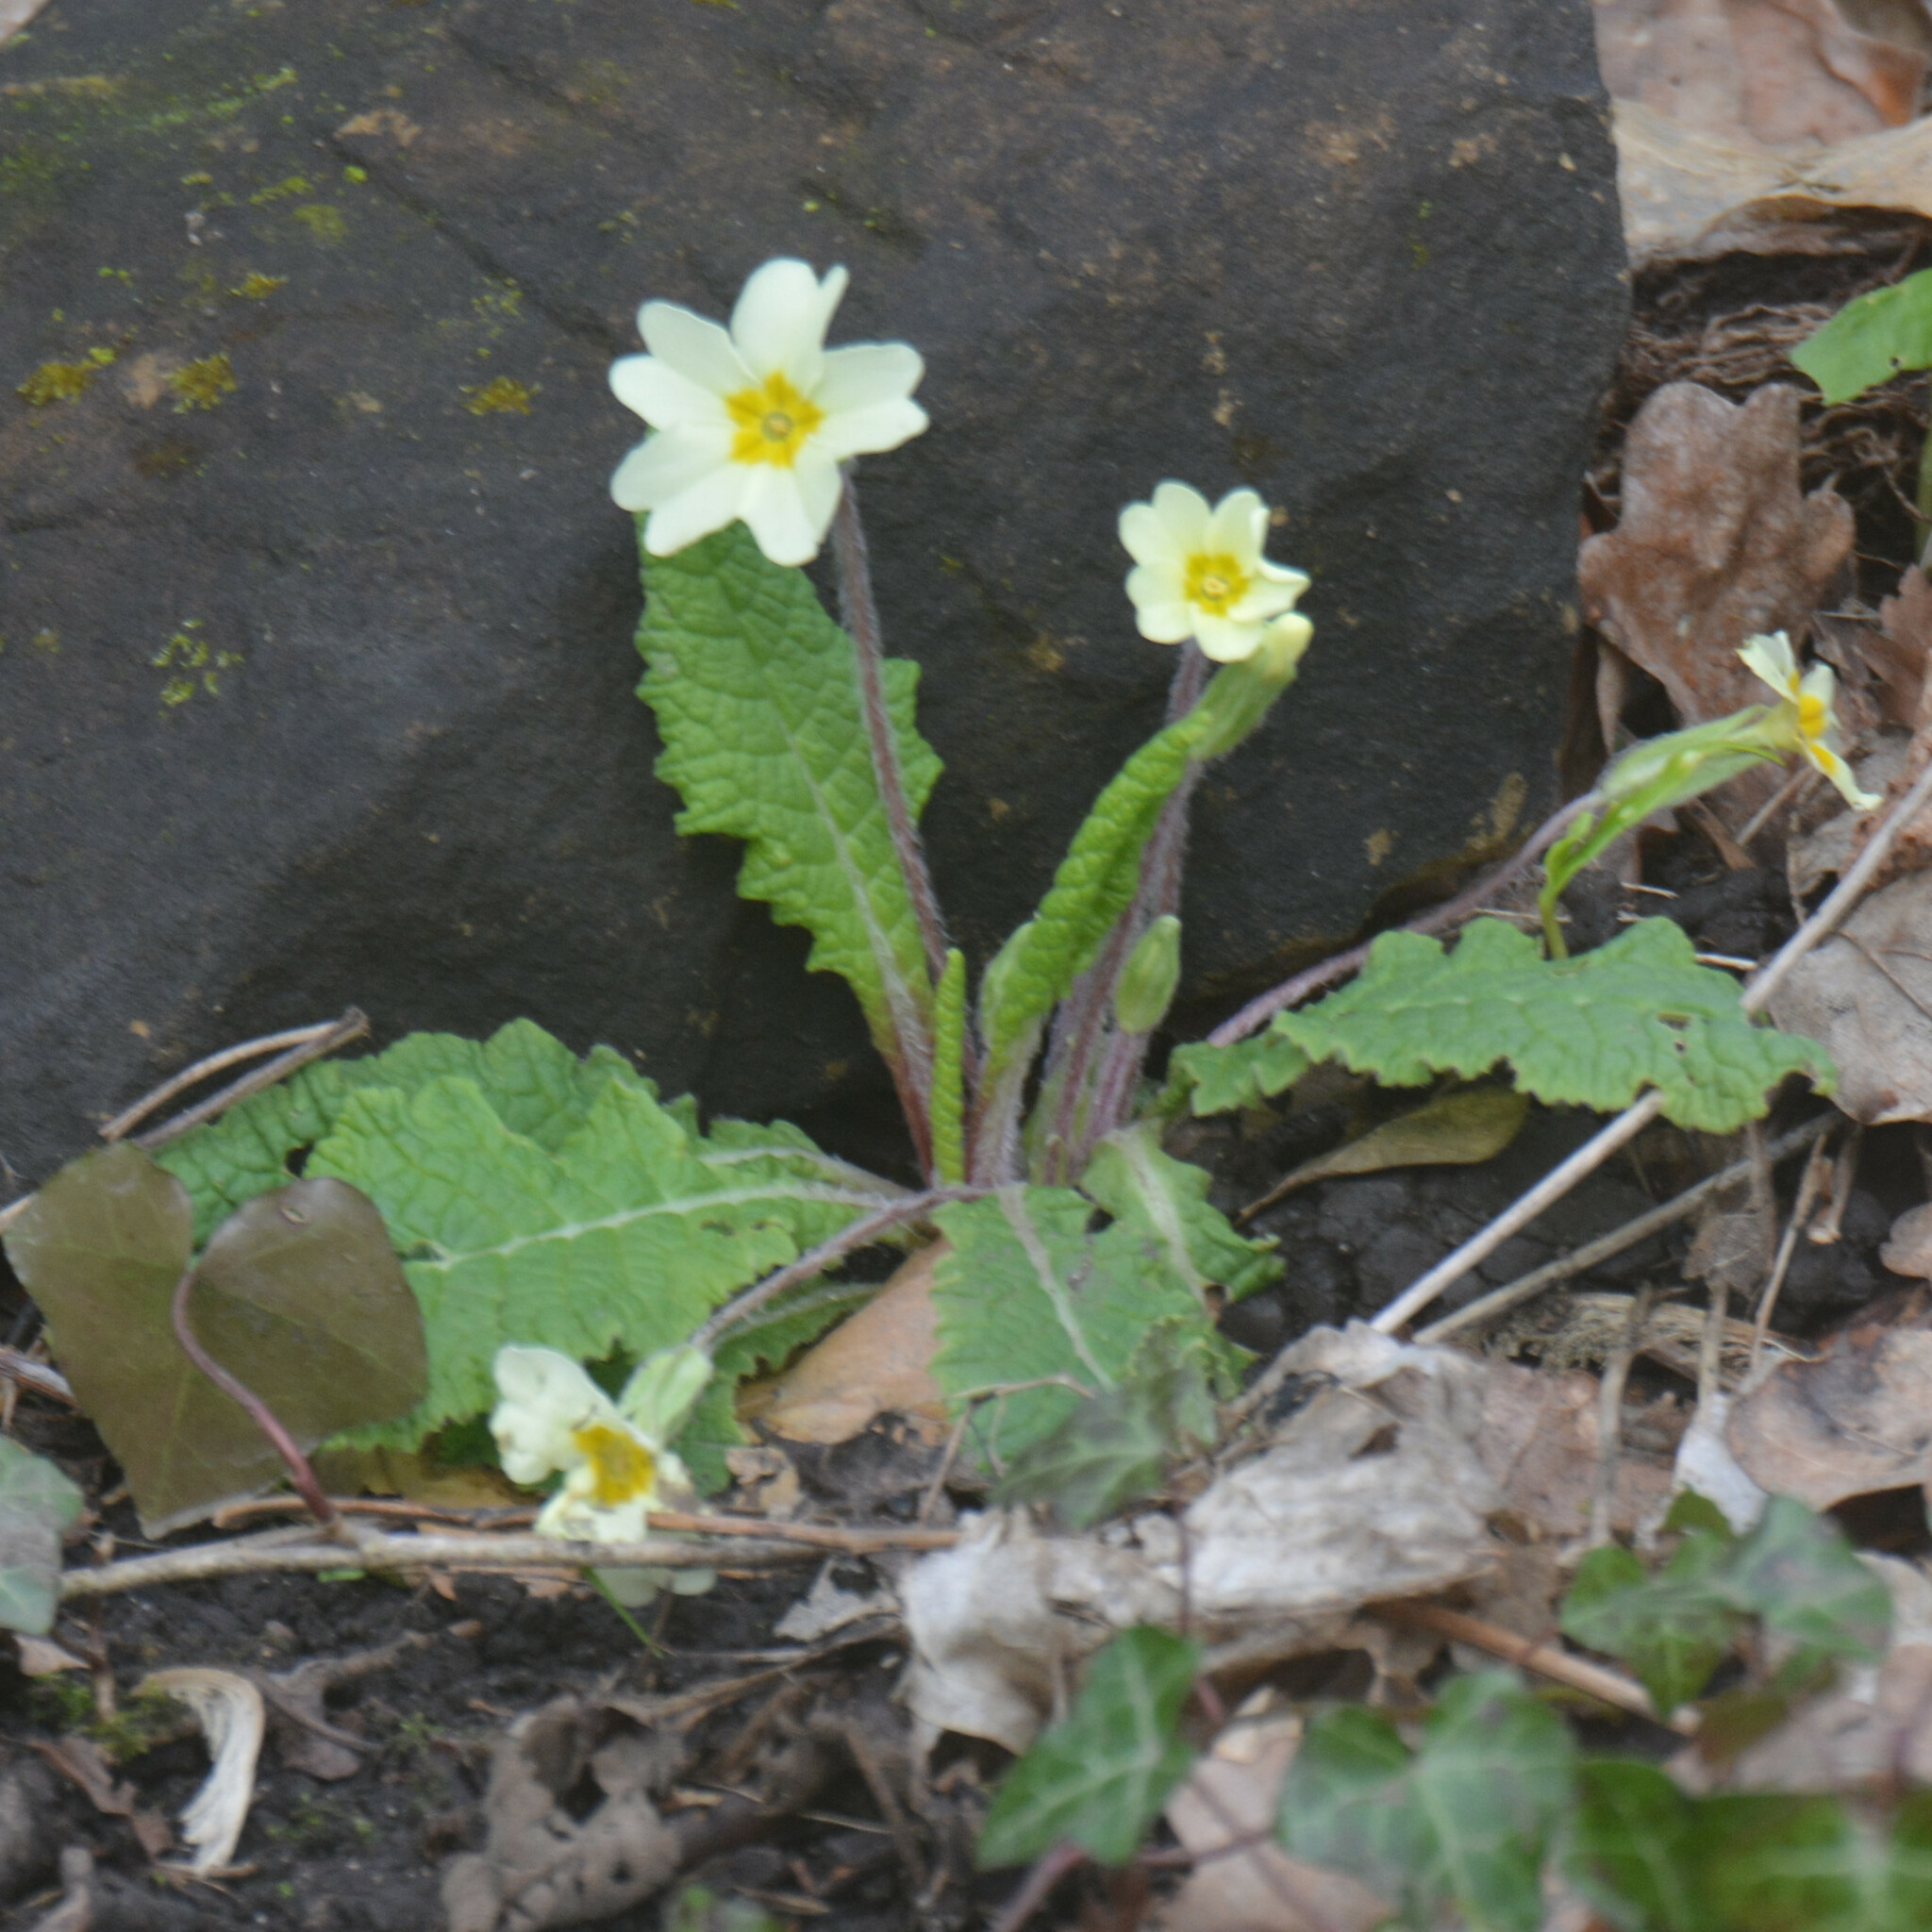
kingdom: Plantae
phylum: Tracheophyta
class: Magnoliopsida
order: Ericales
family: Primulaceae
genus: Primula
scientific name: Primula vulgaris
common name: Primrose
